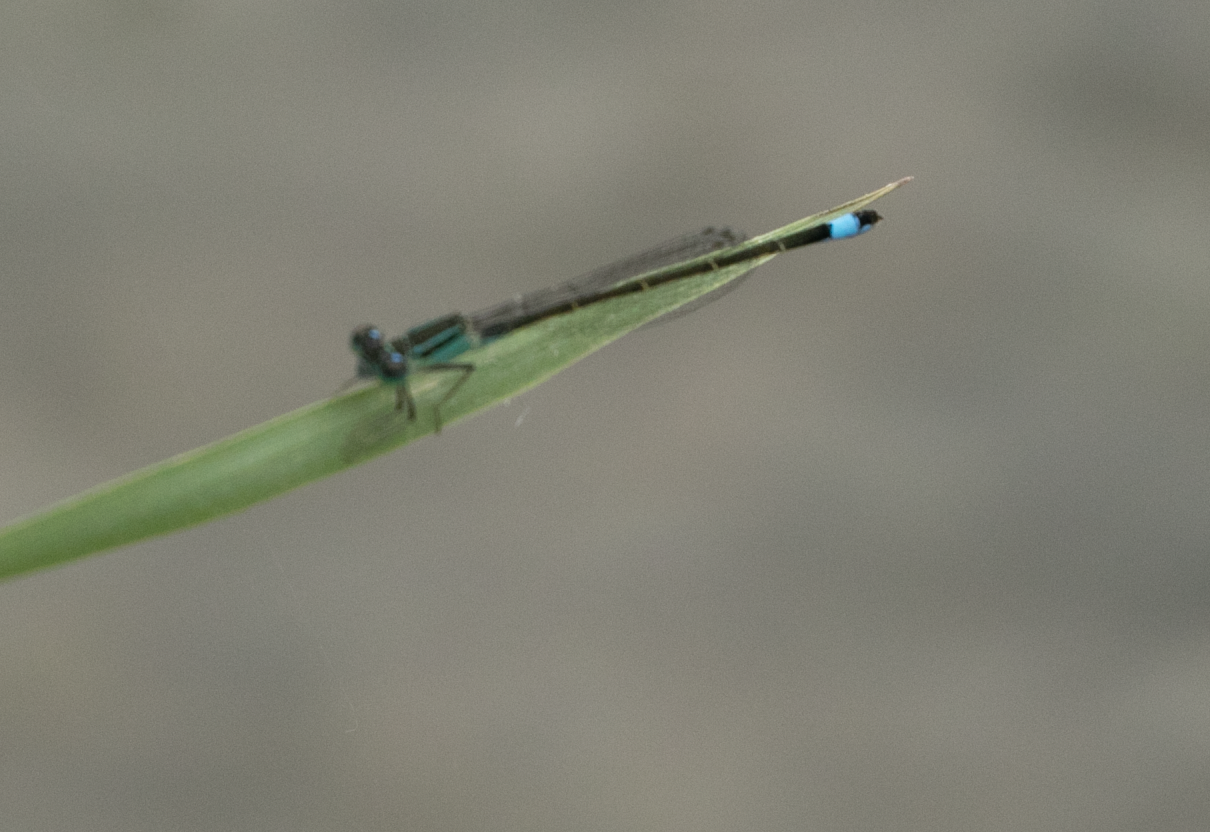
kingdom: Animalia
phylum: Arthropoda
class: Insecta
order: Odonata
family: Coenagrionidae
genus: Ischnura
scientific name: Ischnura elegans
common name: Blue-tailed damselfly
